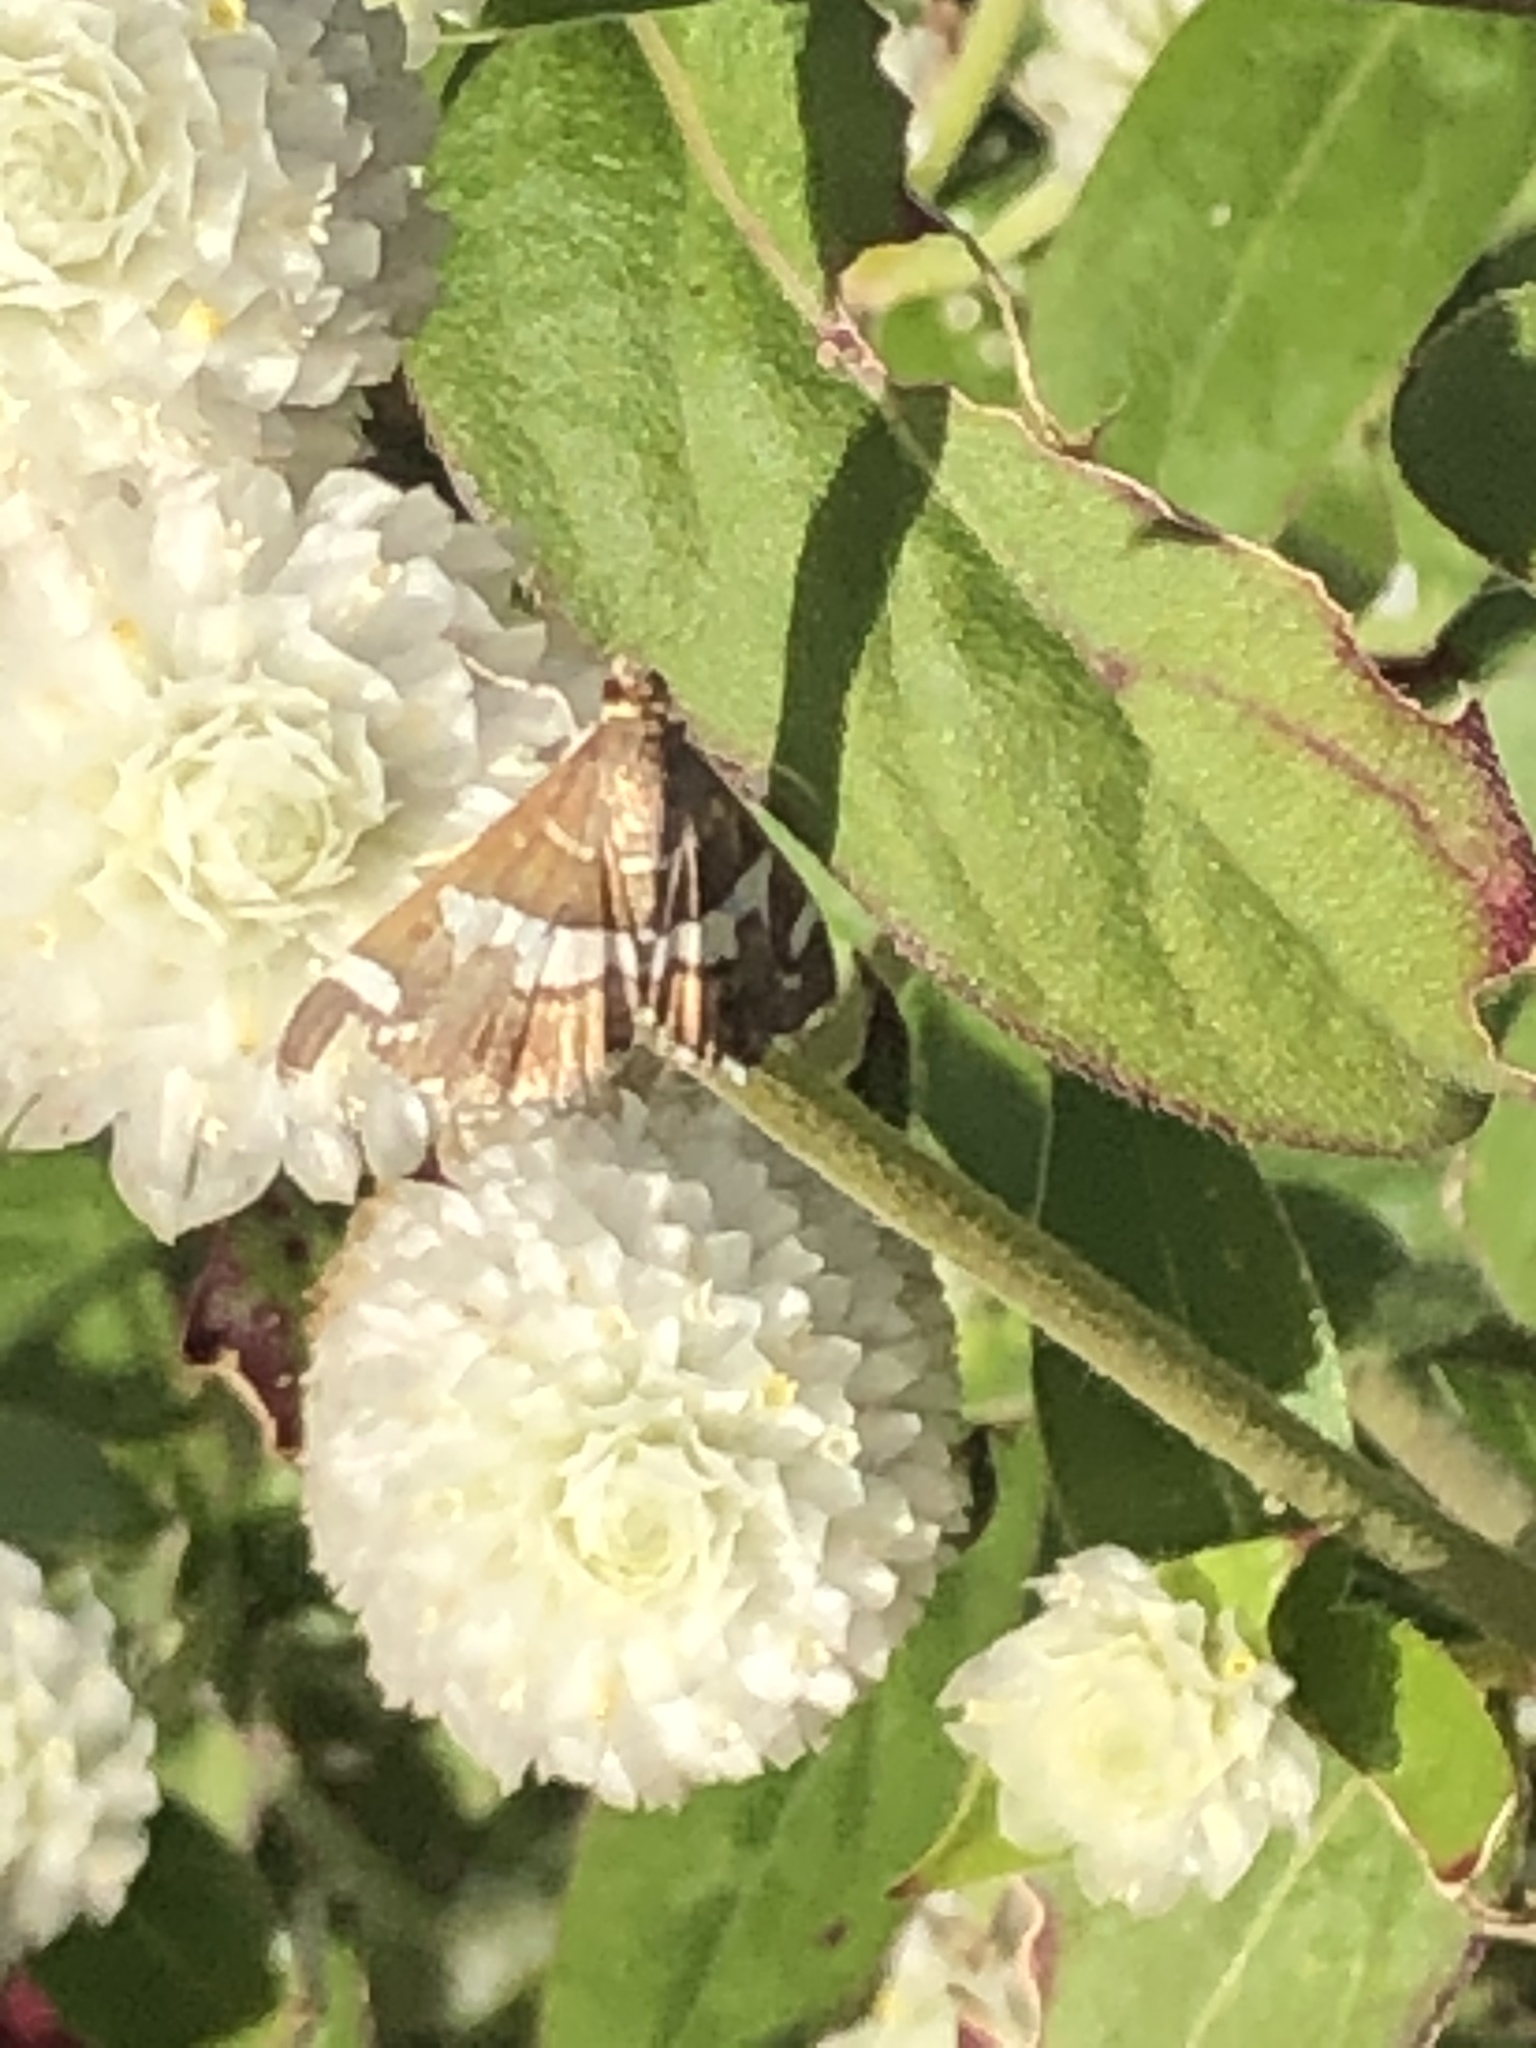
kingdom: Animalia
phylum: Arthropoda
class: Insecta
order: Lepidoptera
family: Crambidae
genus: Spoladea
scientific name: Spoladea recurvalis
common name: Beet webworm moth
